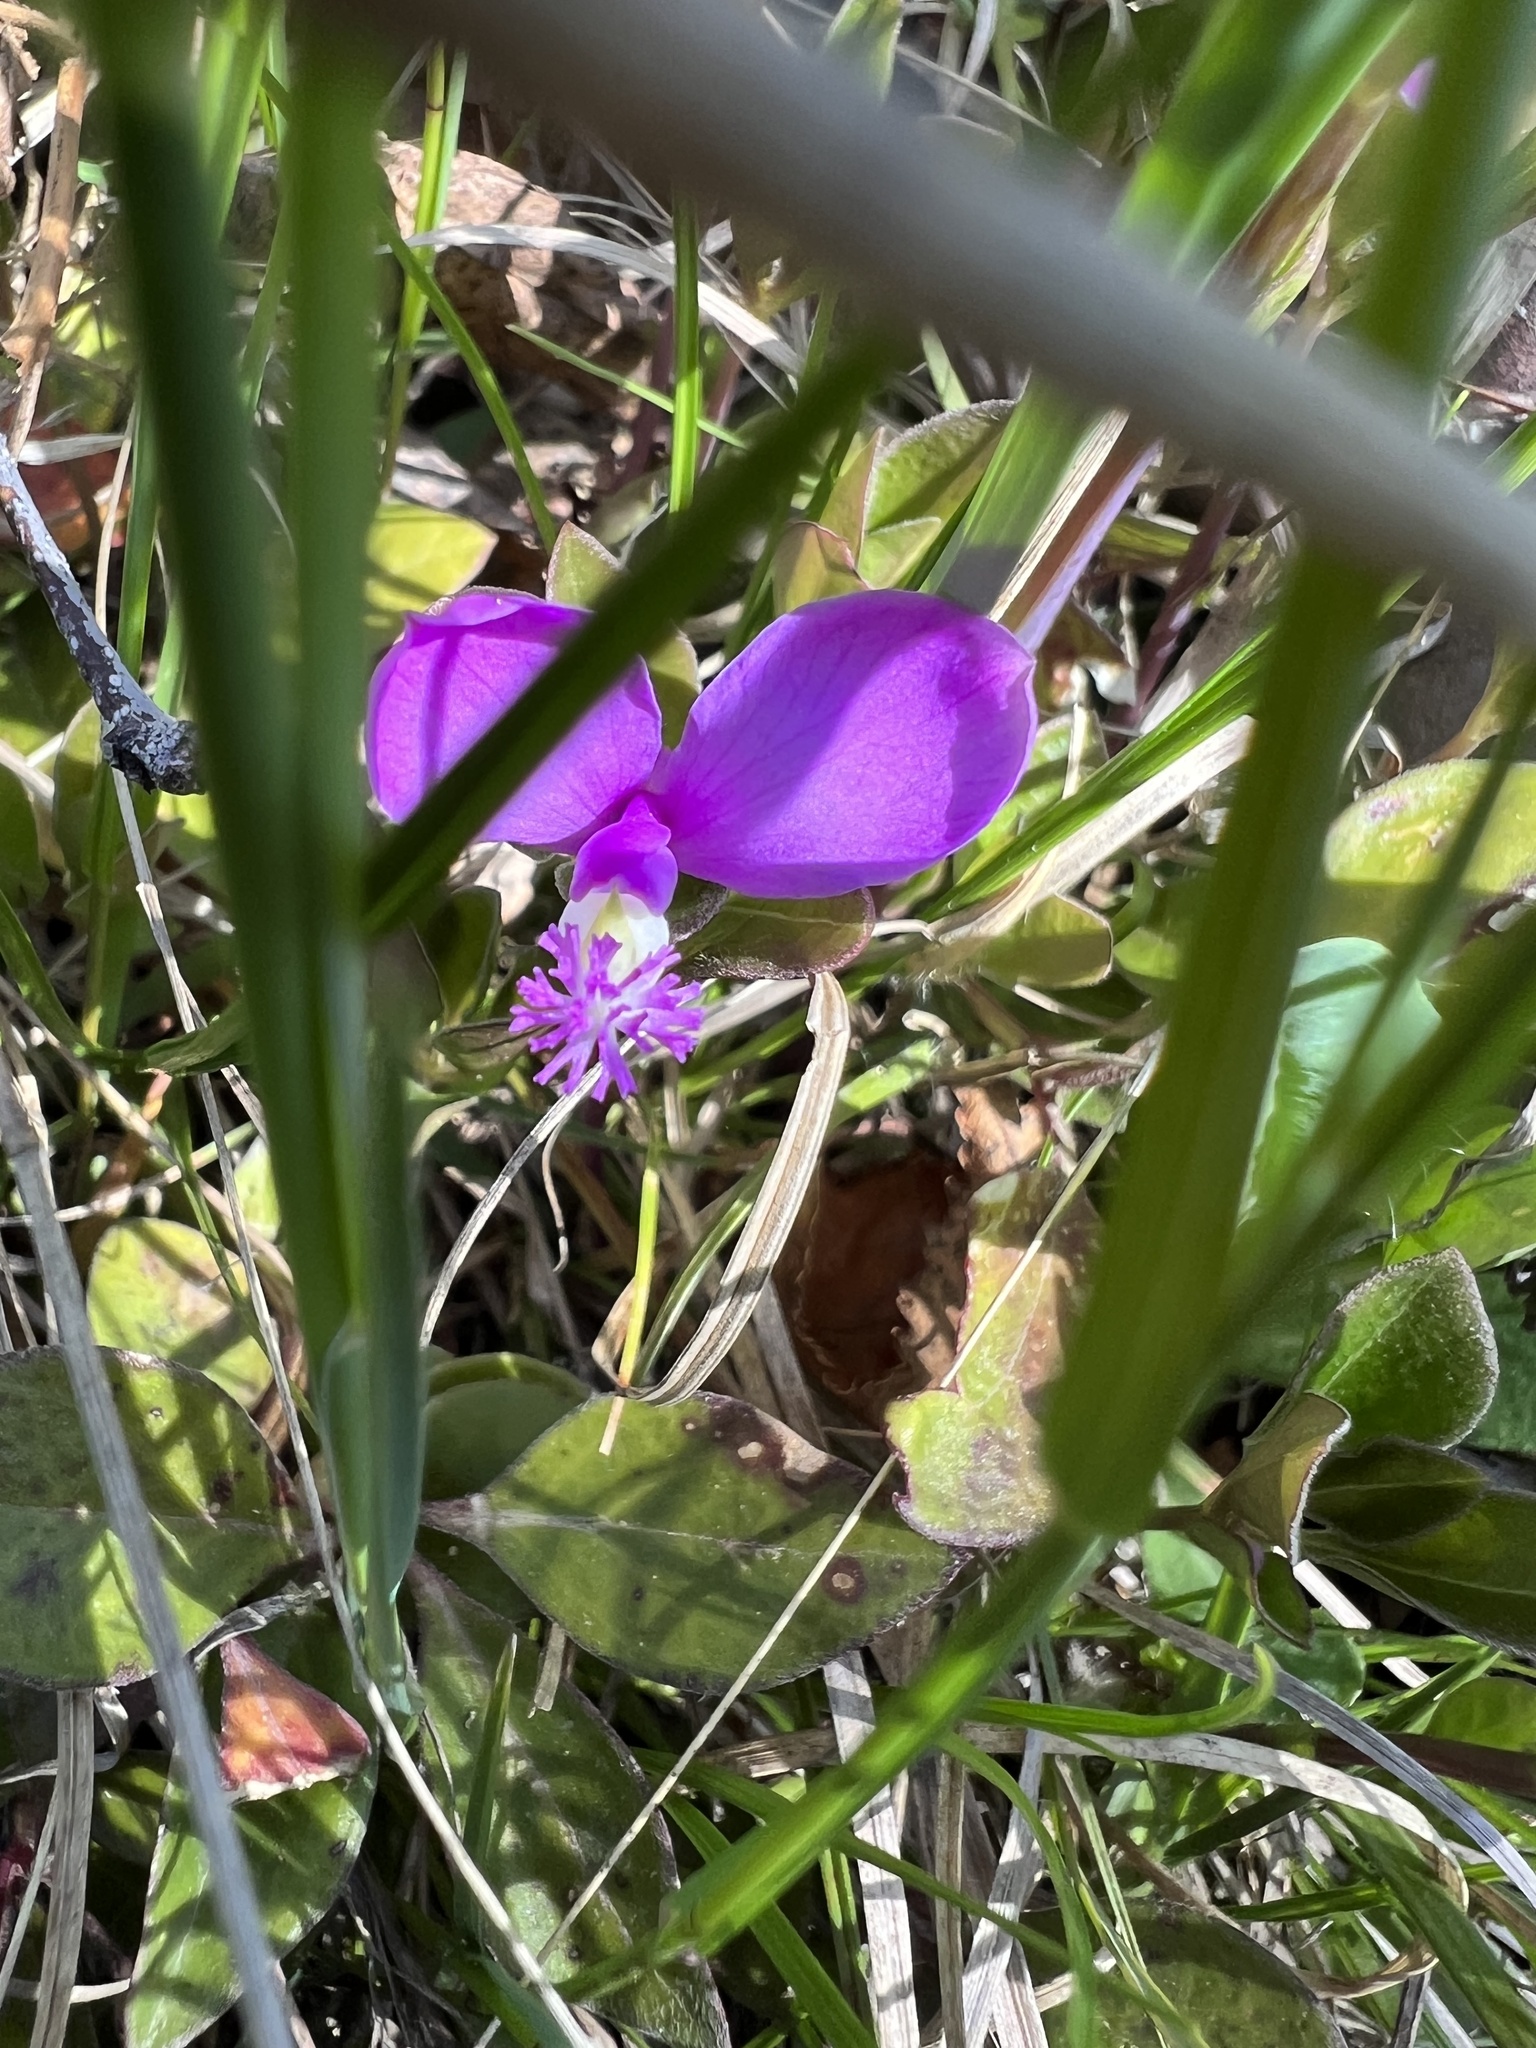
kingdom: Plantae
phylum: Tracheophyta
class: Magnoliopsida
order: Fabales
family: Polygalaceae
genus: Polygaloides
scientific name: Polygaloides paucifolia
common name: Bird-on-the-wing
